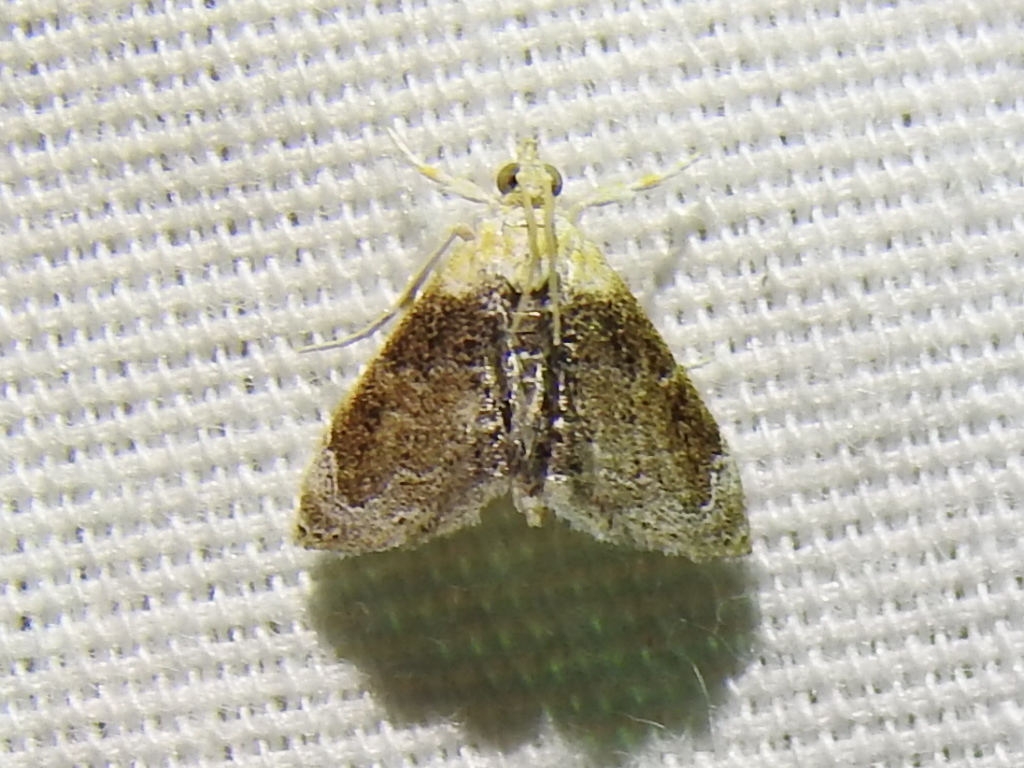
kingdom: Animalia
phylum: Arthropoda
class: Insecta
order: Lepidoptera
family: Crambidae
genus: Lipocosma
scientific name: Lipocosma polingi
